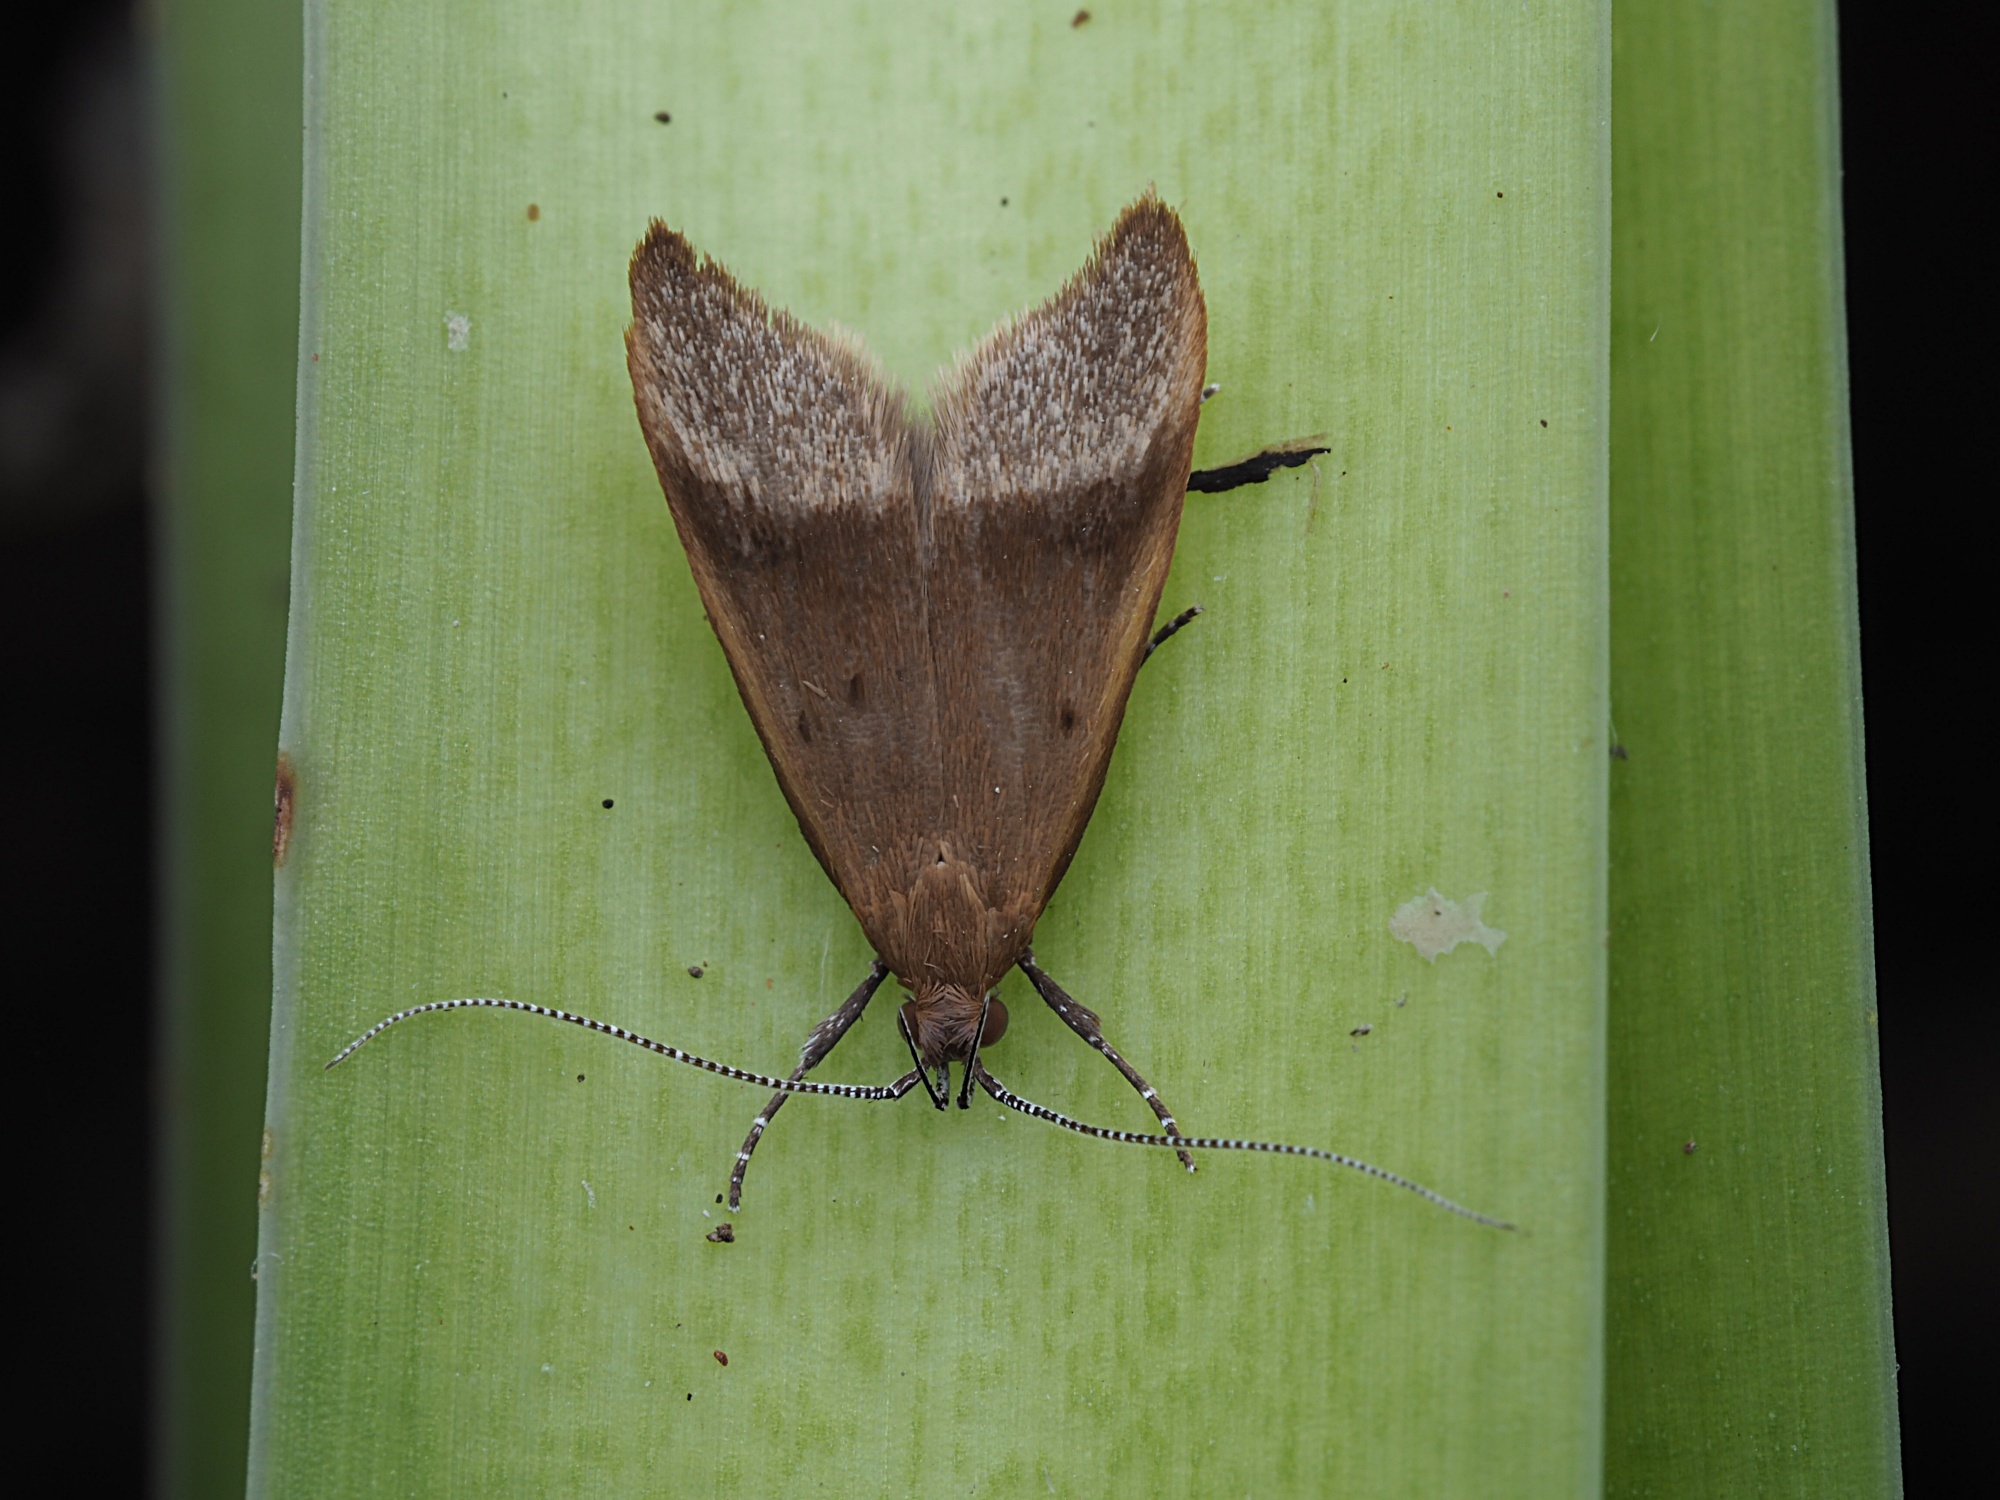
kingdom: Animalia
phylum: Arthropoda
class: Insecta
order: Lepidoptera
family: Oecophoridae
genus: Gymnobathra
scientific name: Gymnobathra hyetodes
